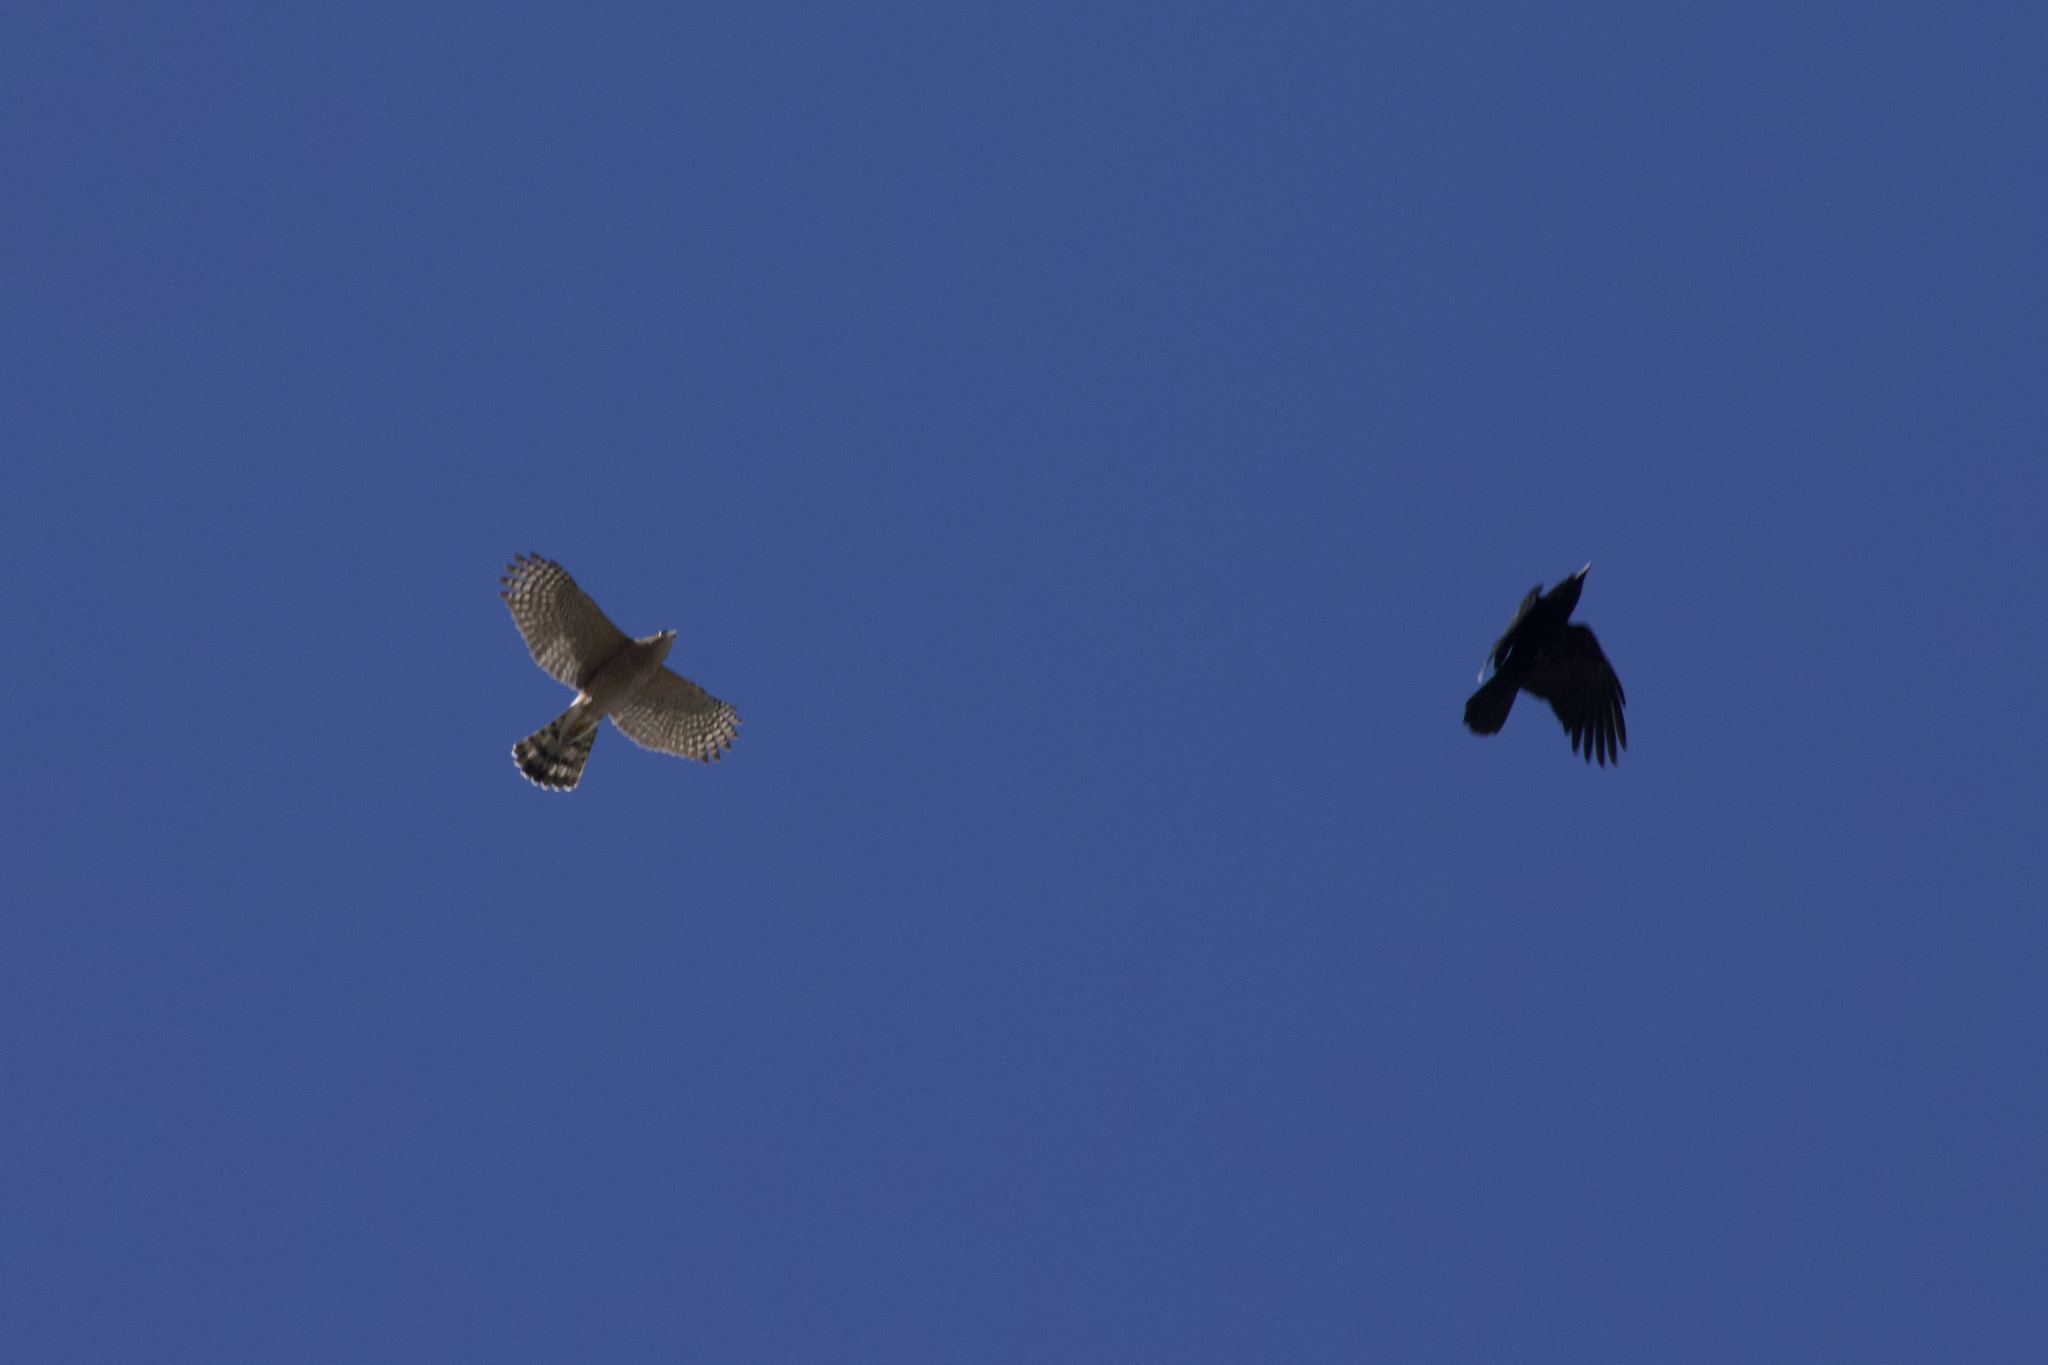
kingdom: Animalia
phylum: Chordata
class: Aves
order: Accipitriformes
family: Accipitridae
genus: Accipiter
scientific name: Accipiter cooperii
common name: Cooper's hawk
